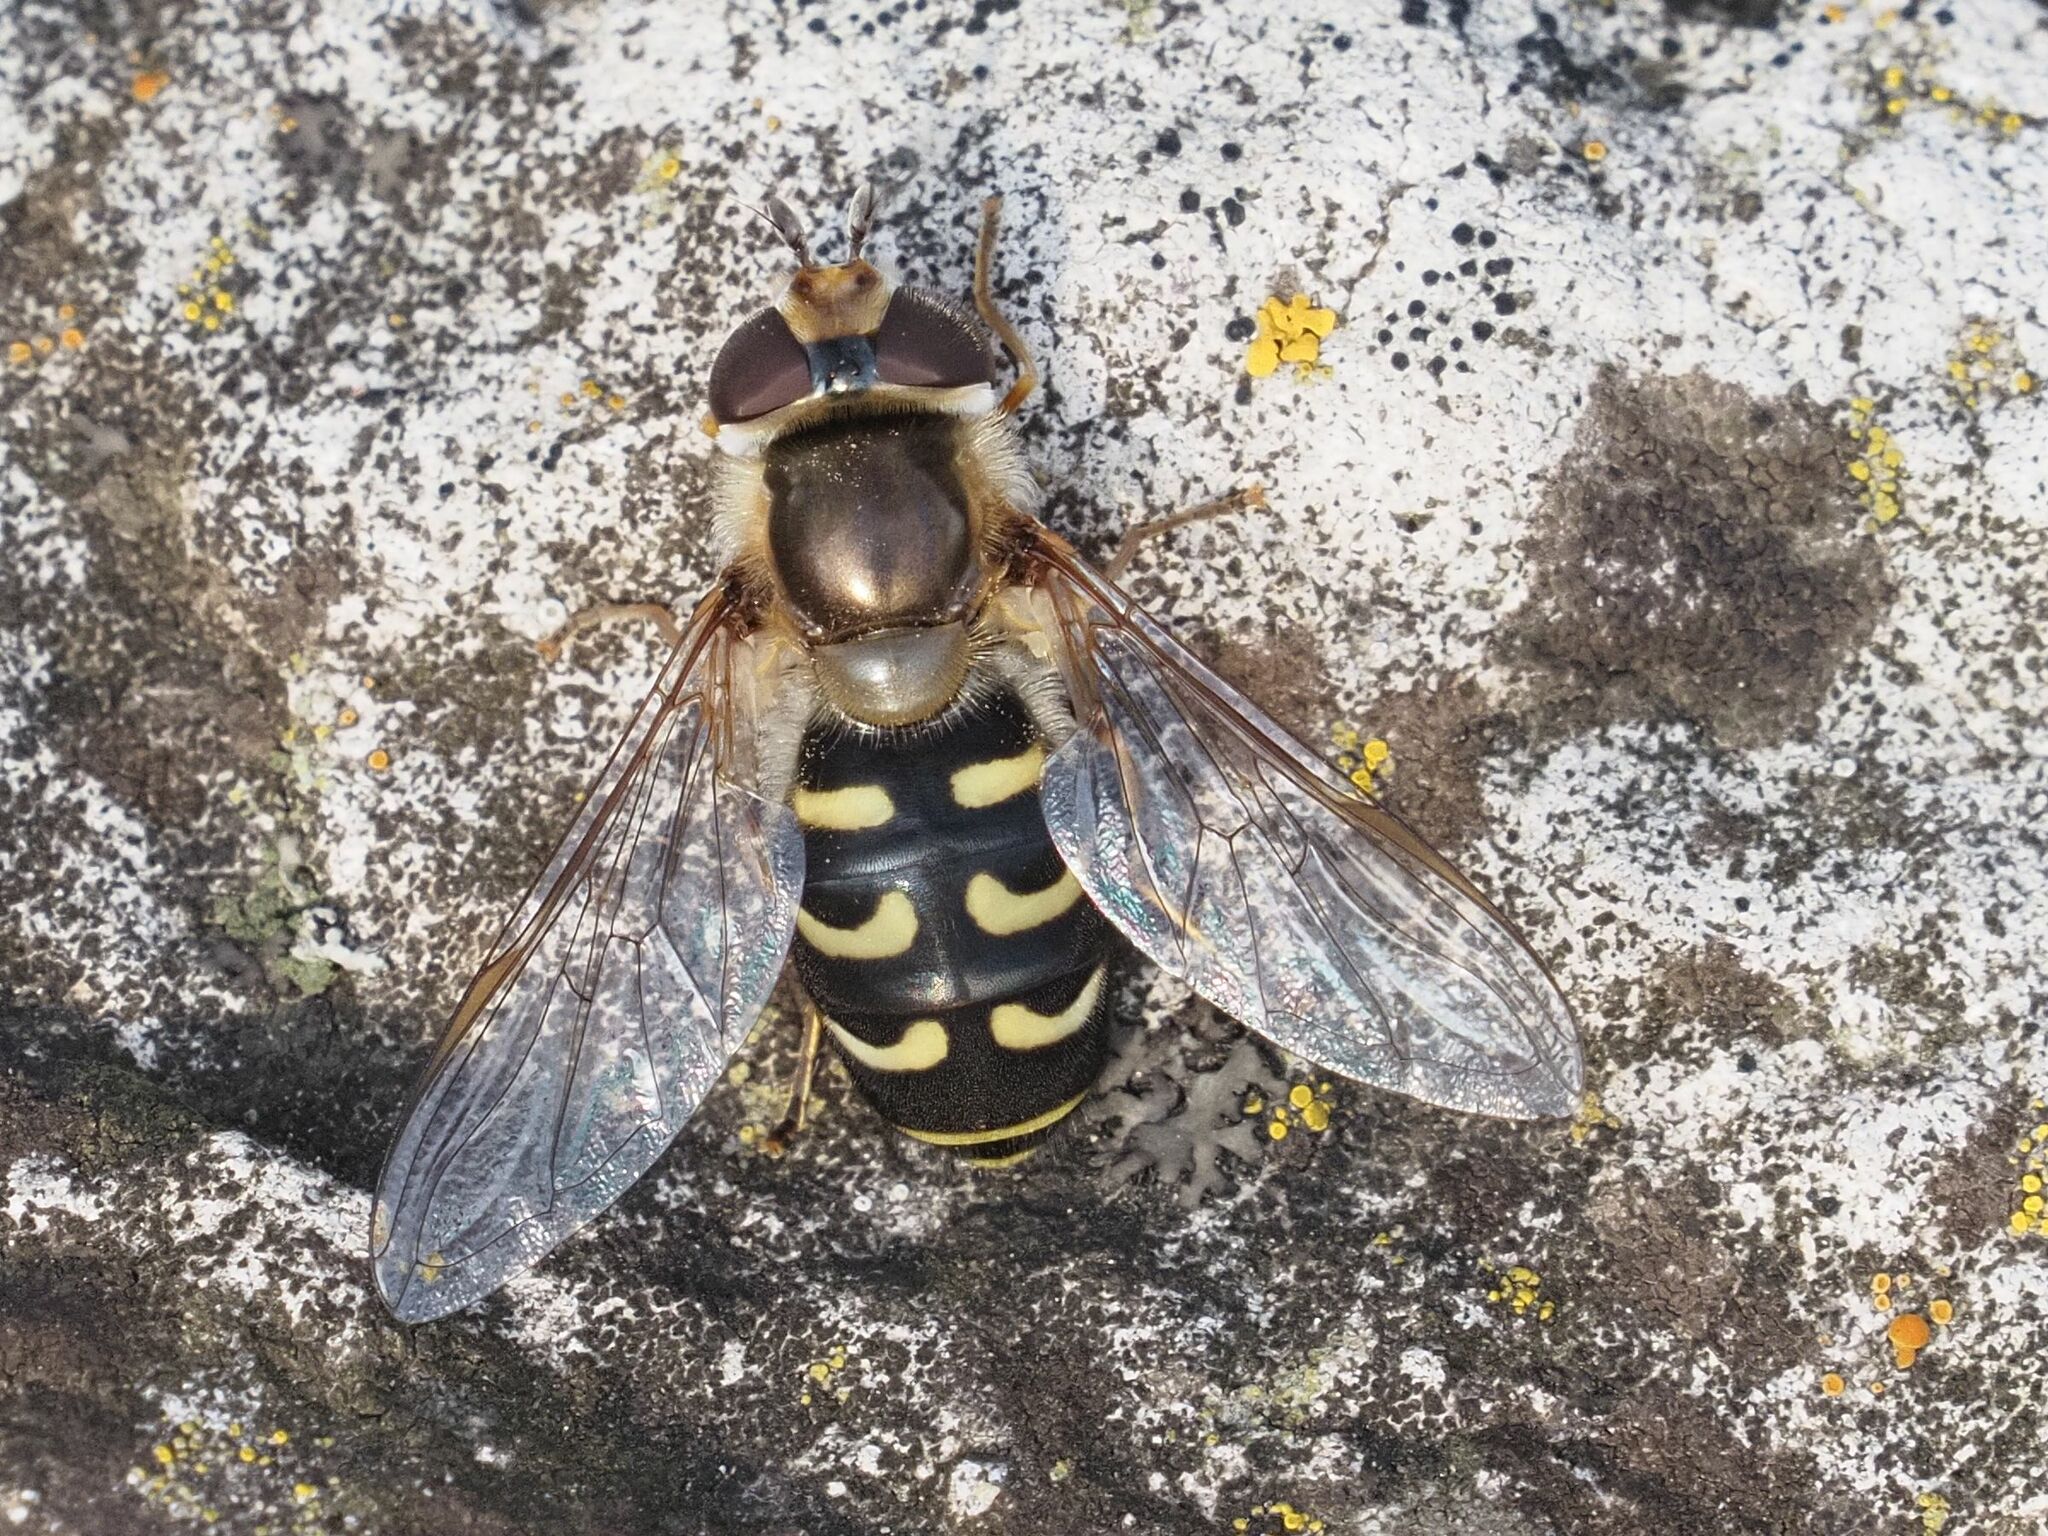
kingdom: Animalia
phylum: Arthropoda
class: Insecta
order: Diptera
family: Syrphidae
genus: Scaeva
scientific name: Scaeva selenitica
